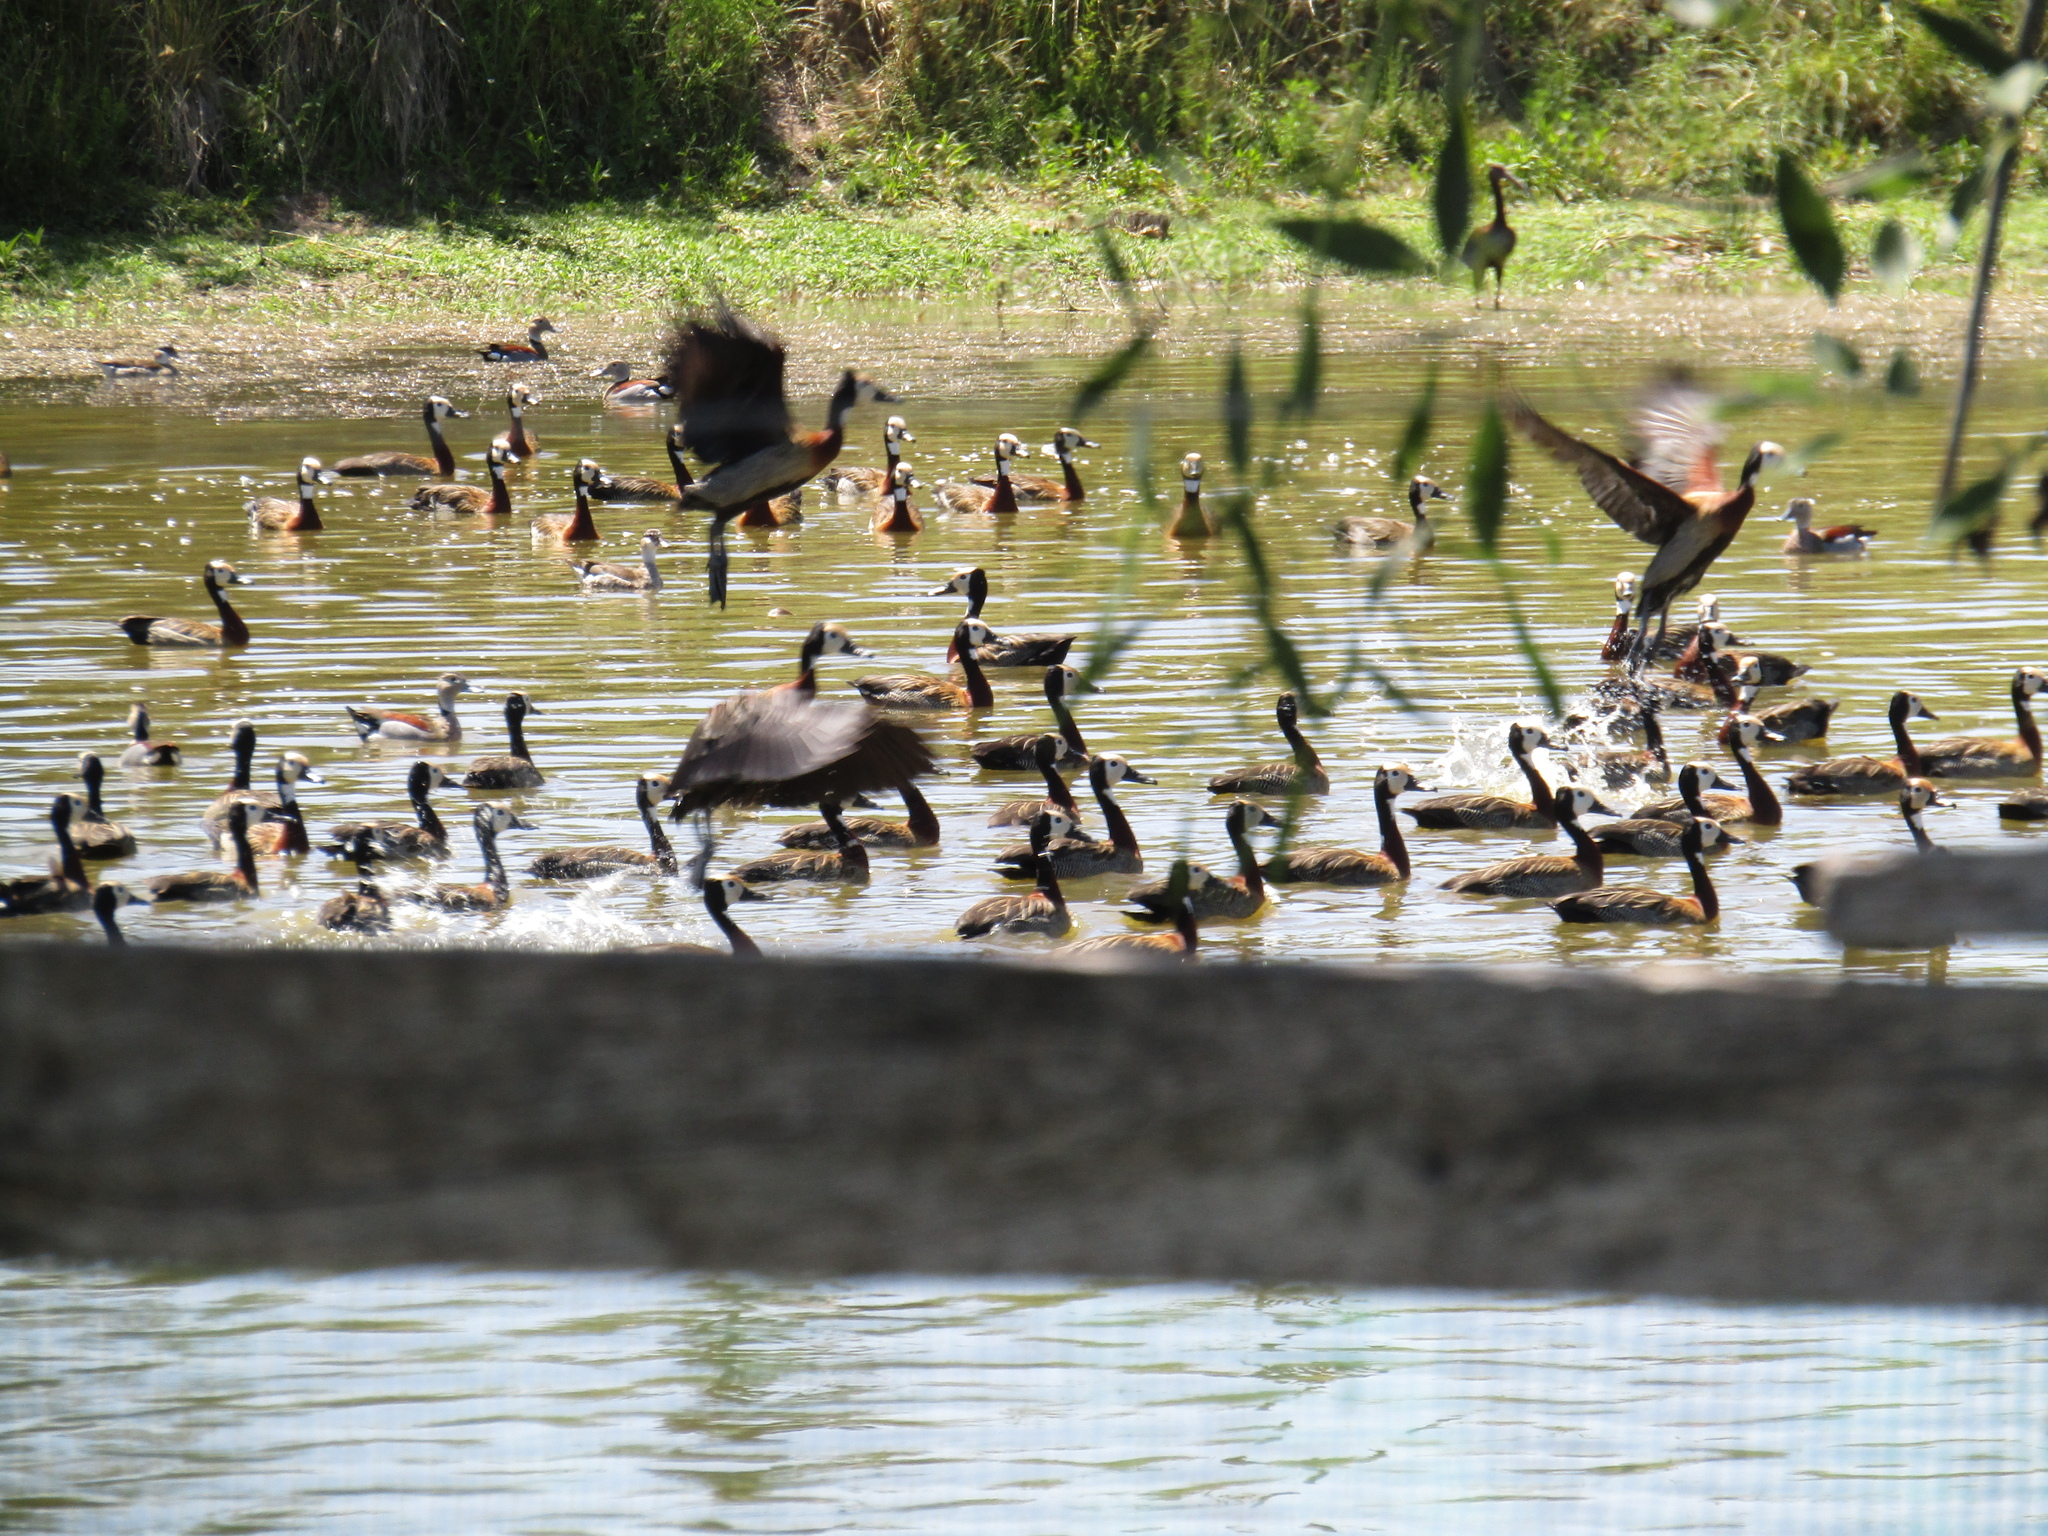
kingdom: Animalia
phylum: Chordata
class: Aves
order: Anseriformes
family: Anatidae
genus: Dendrocygna
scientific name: Dendrocygna viduata
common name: White-faced whistling duck
